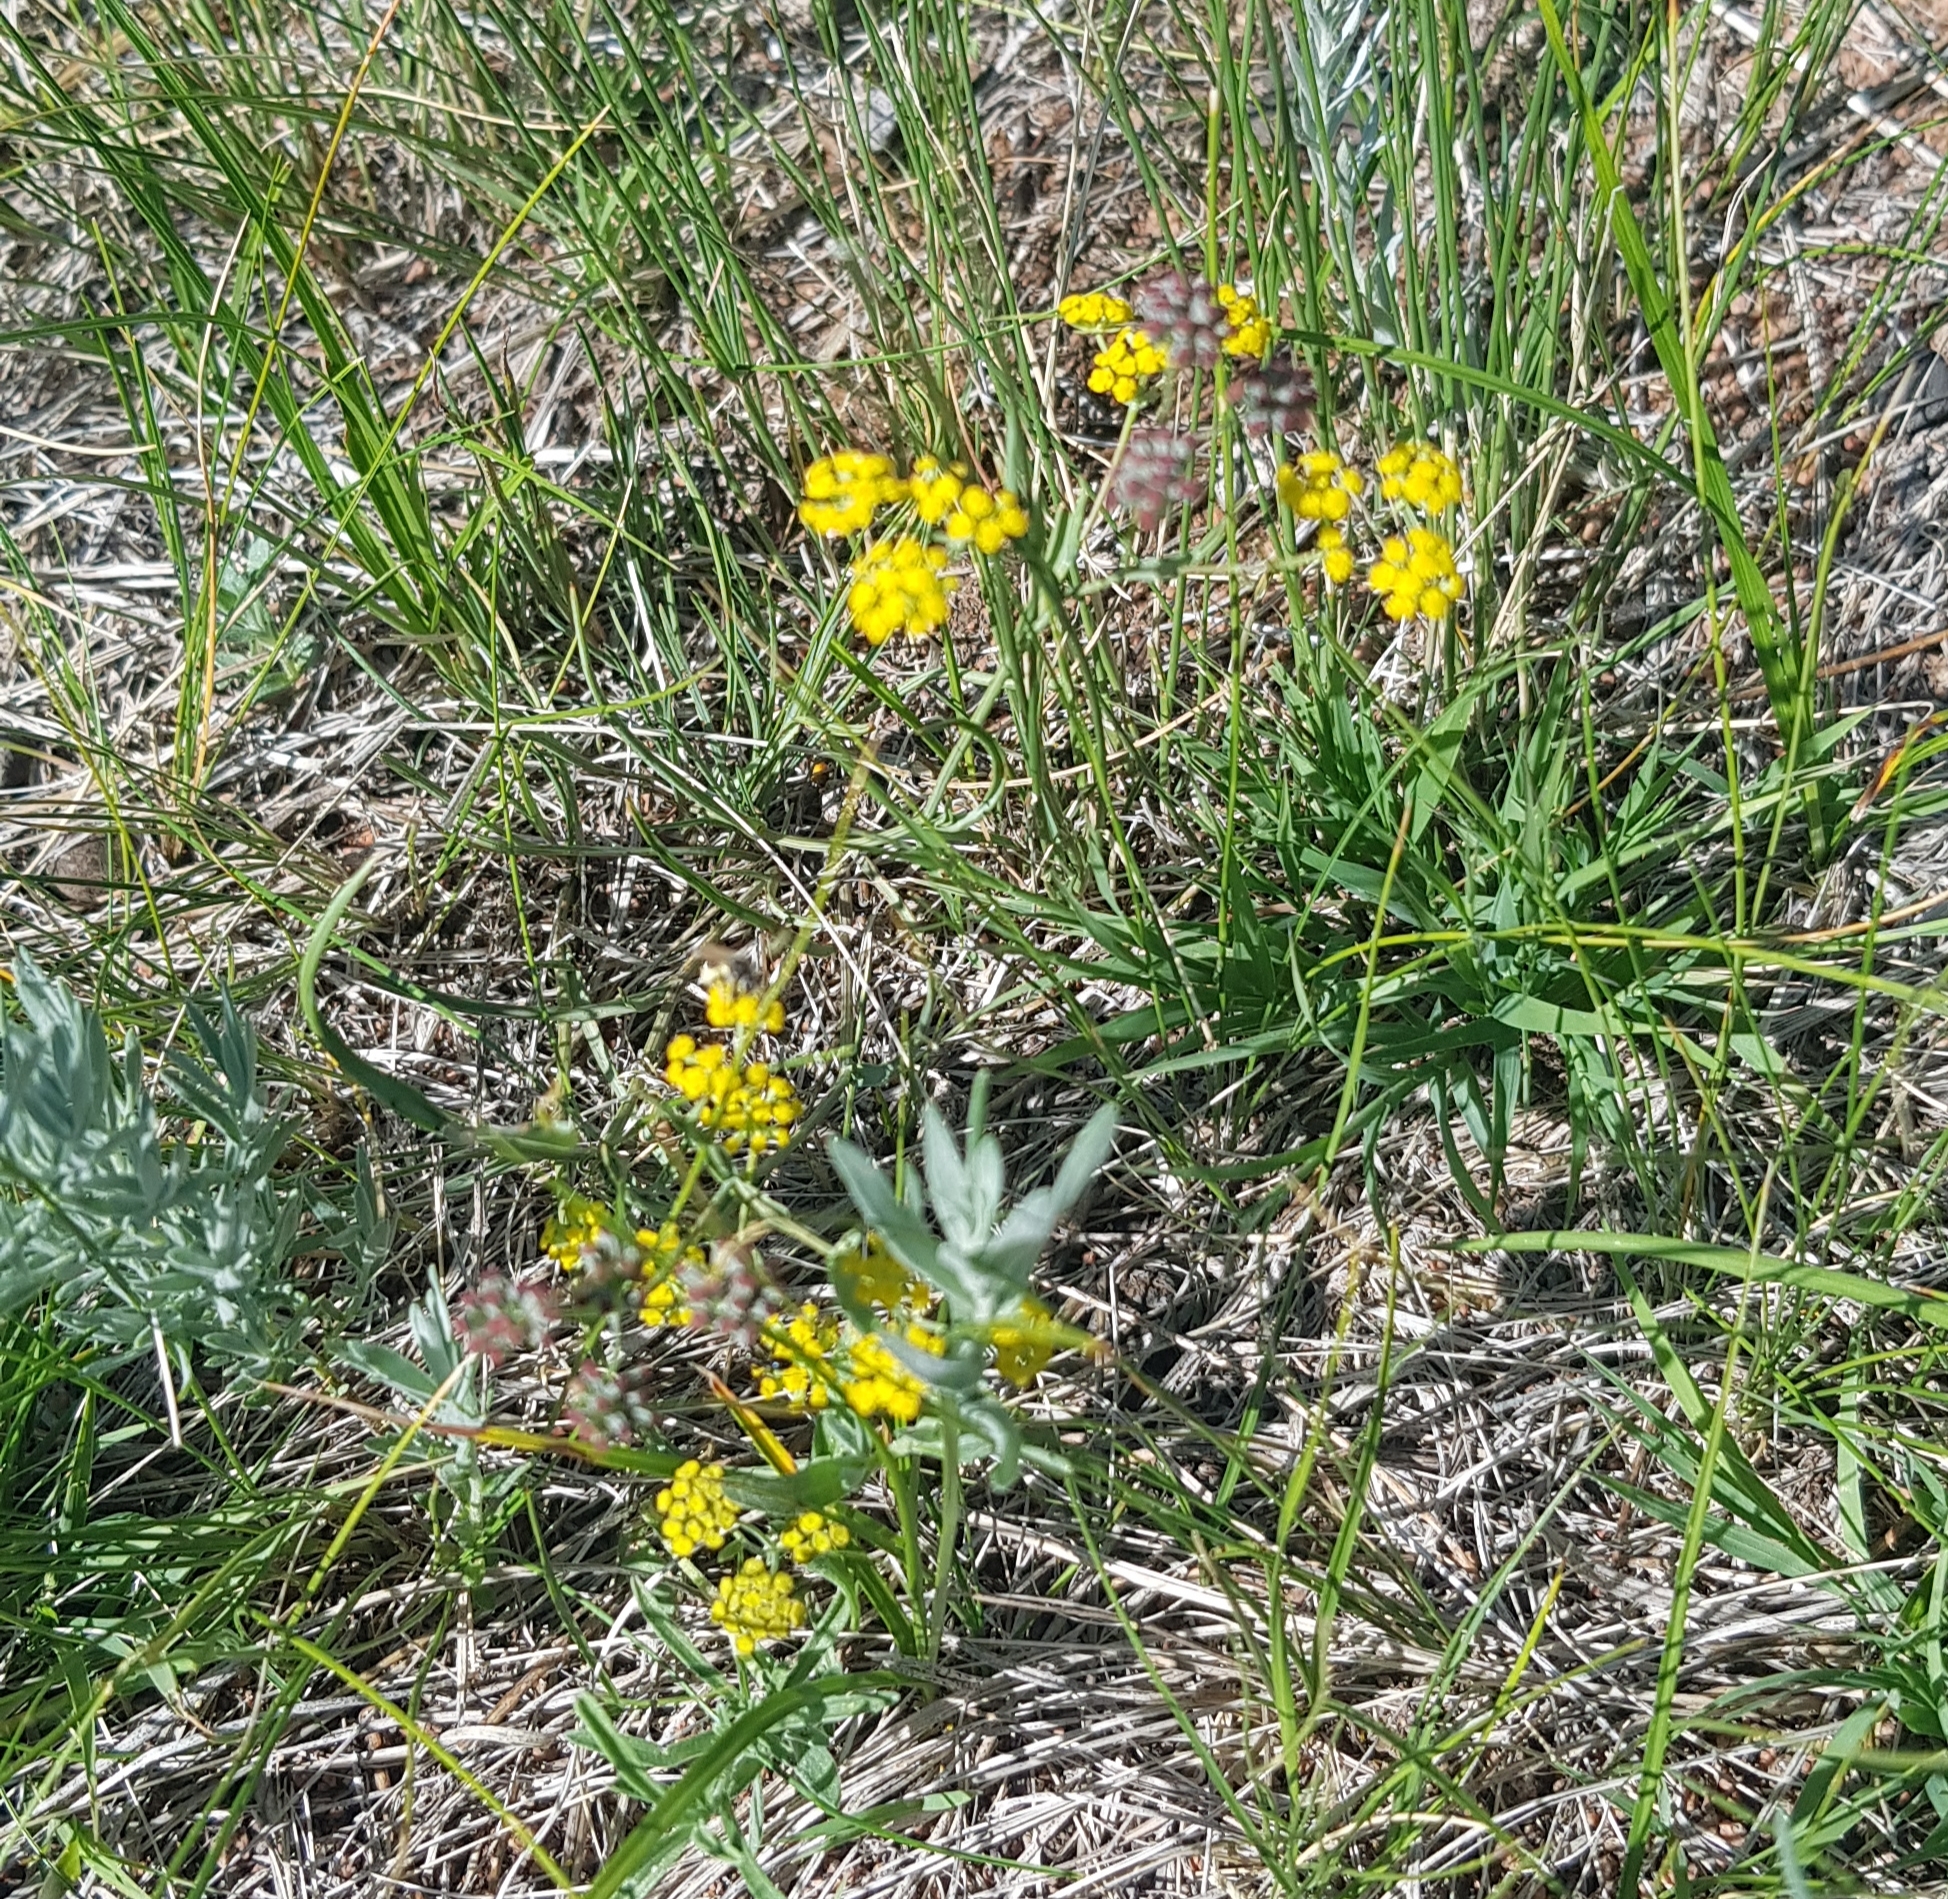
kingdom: Plantae
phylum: Tracheophyta
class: Magnoliopsida
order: Apiales
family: Apiaceae
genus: Bupleurum
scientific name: Bupleurum bicaule
